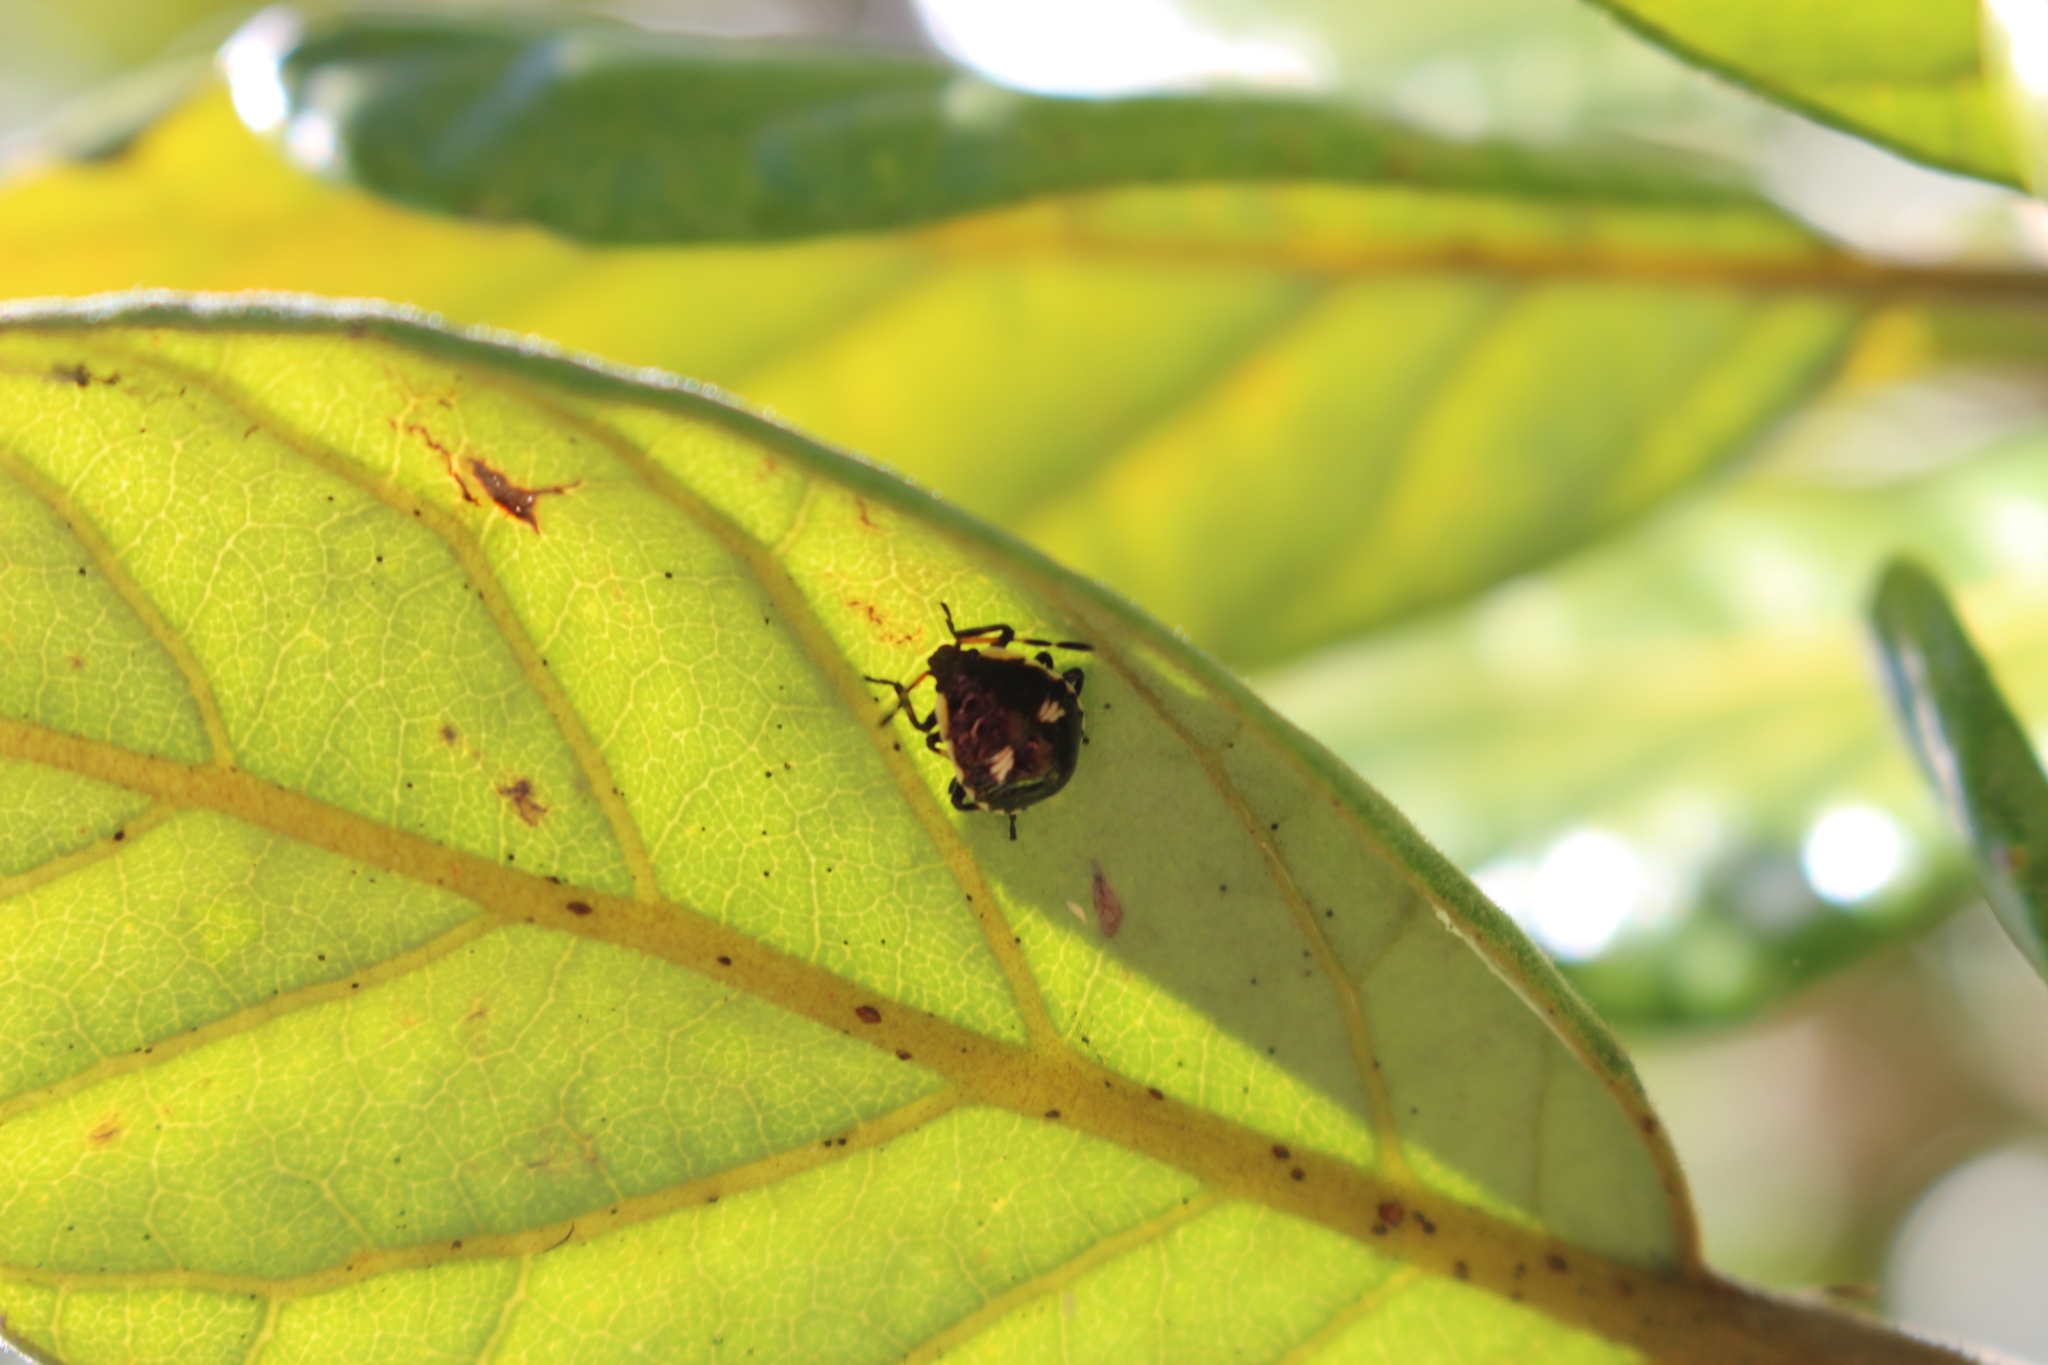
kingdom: Animalia
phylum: Arthropoda
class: Insecta
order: Hemiptera
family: Pentatomidae
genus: Cermatulus
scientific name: Cermatulus nasalis
